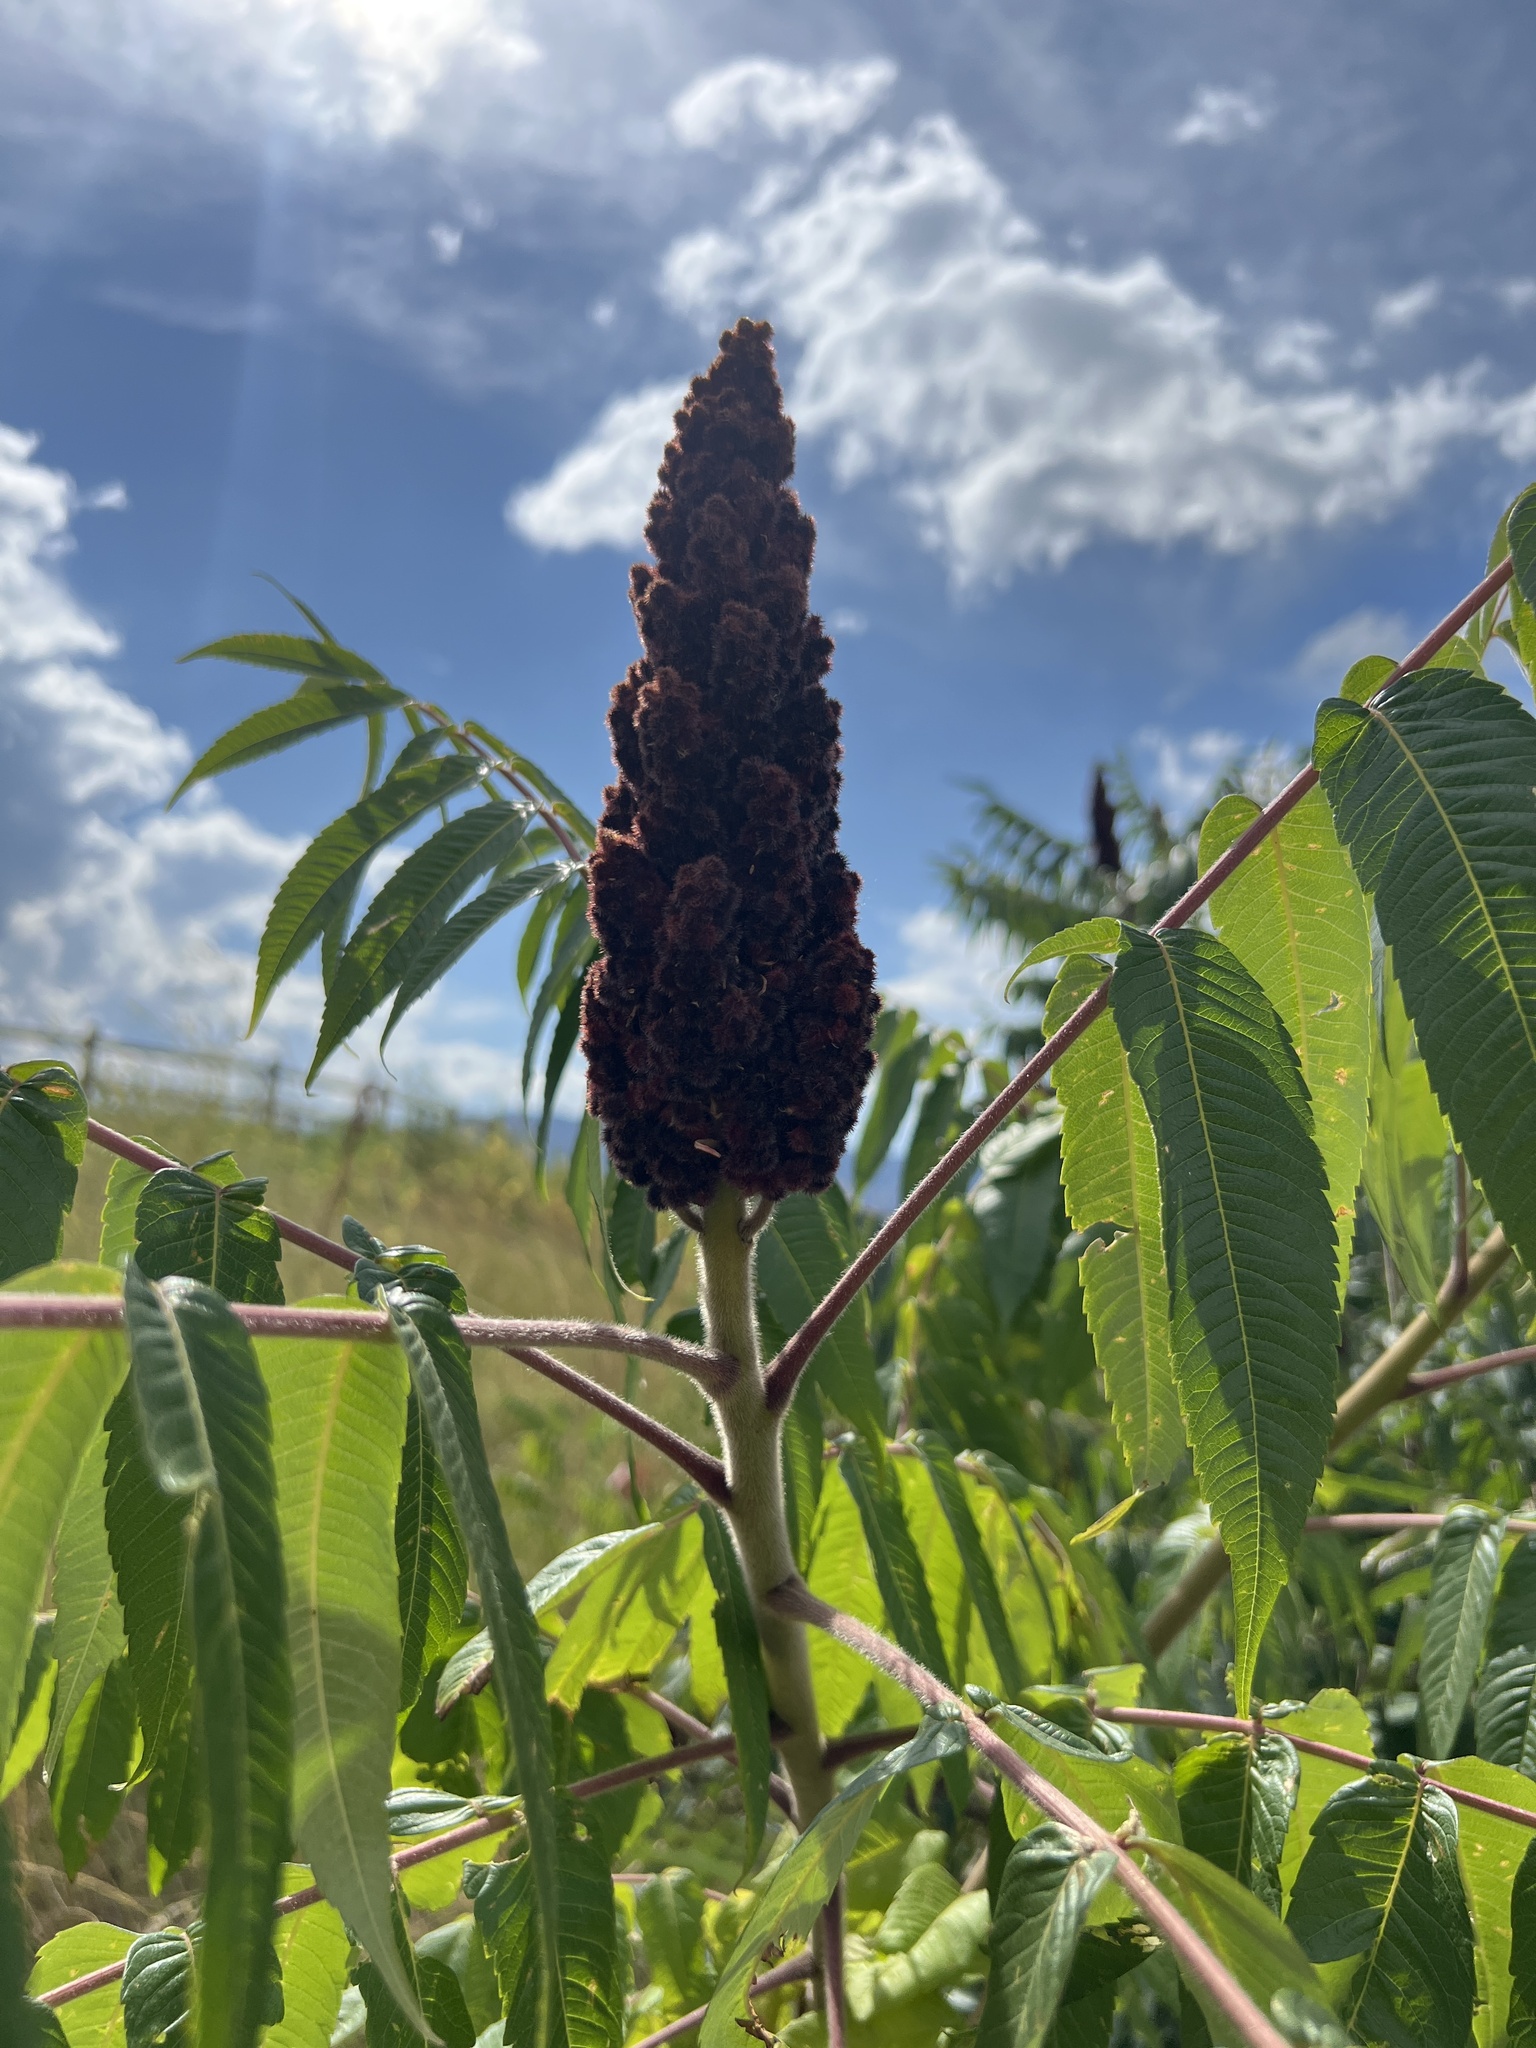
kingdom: Plantae
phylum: Tracheophyta
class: Magnoliopsida
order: Sapindales
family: Anacardiaceae
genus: Rhus
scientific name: Rhus typhina
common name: Staghorn sumac
